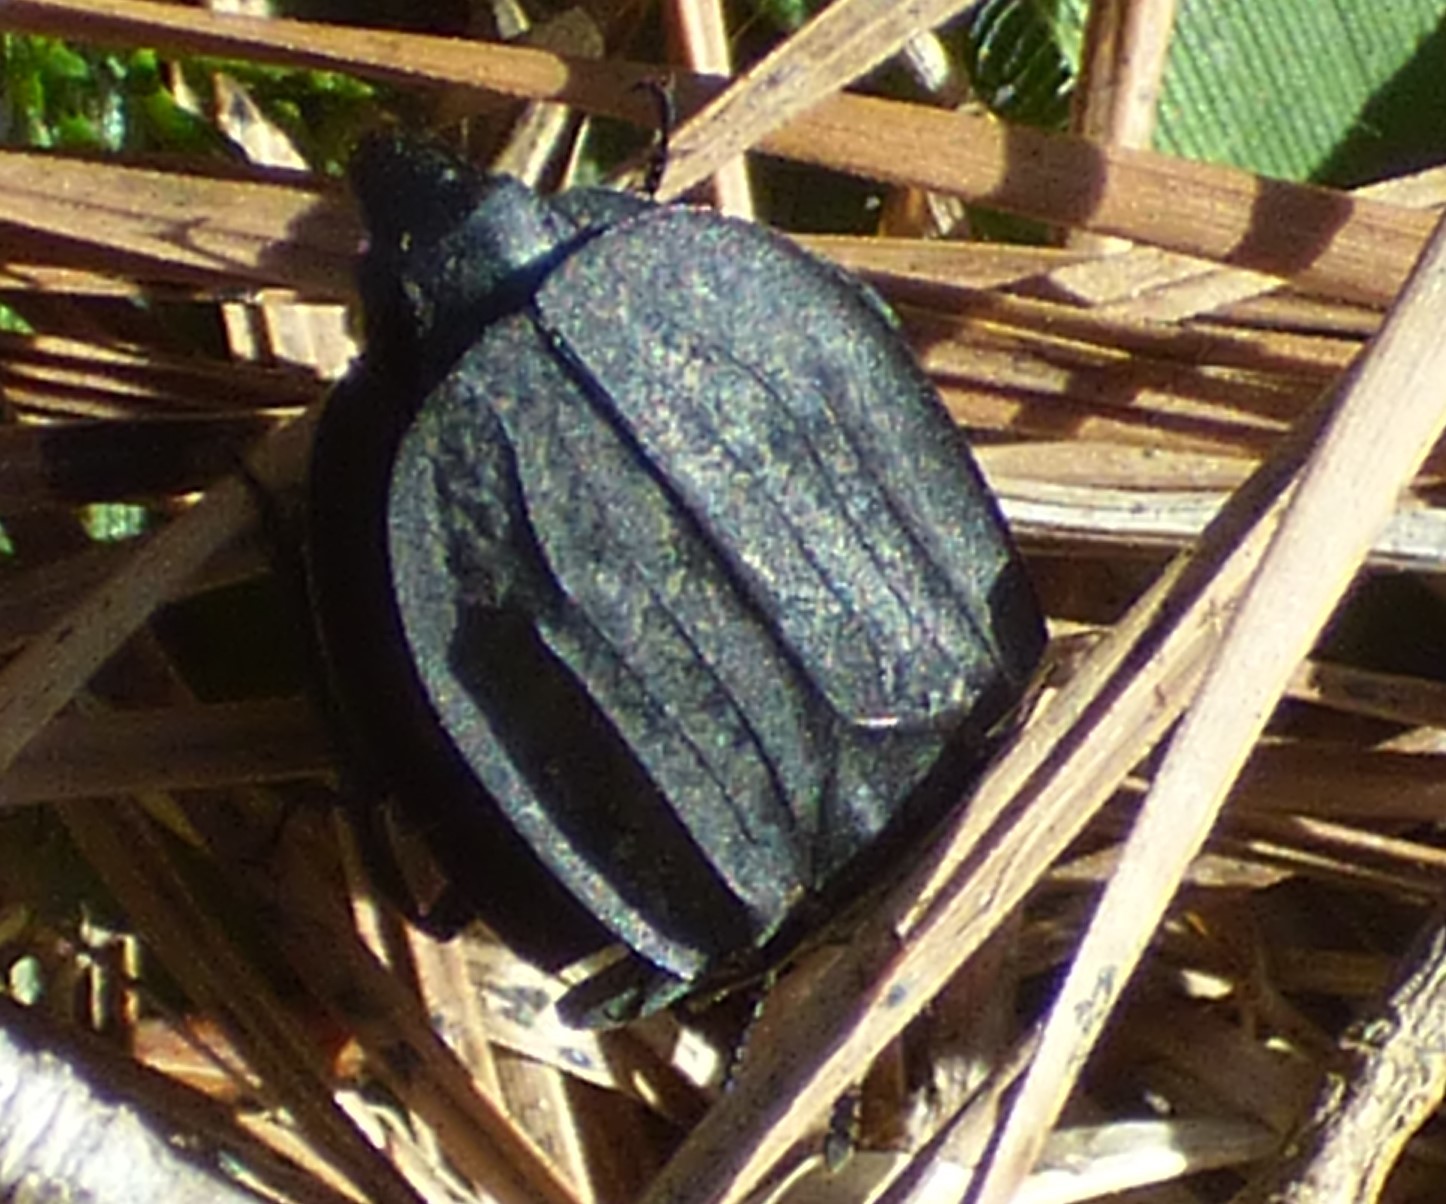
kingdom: Animalia
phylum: Arthropoda
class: Insecta
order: Coleoptera
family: Staphylinidae
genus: Oiceoptoma
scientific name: Oiceoptoma inaequale
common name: Ridged carrion beetle
